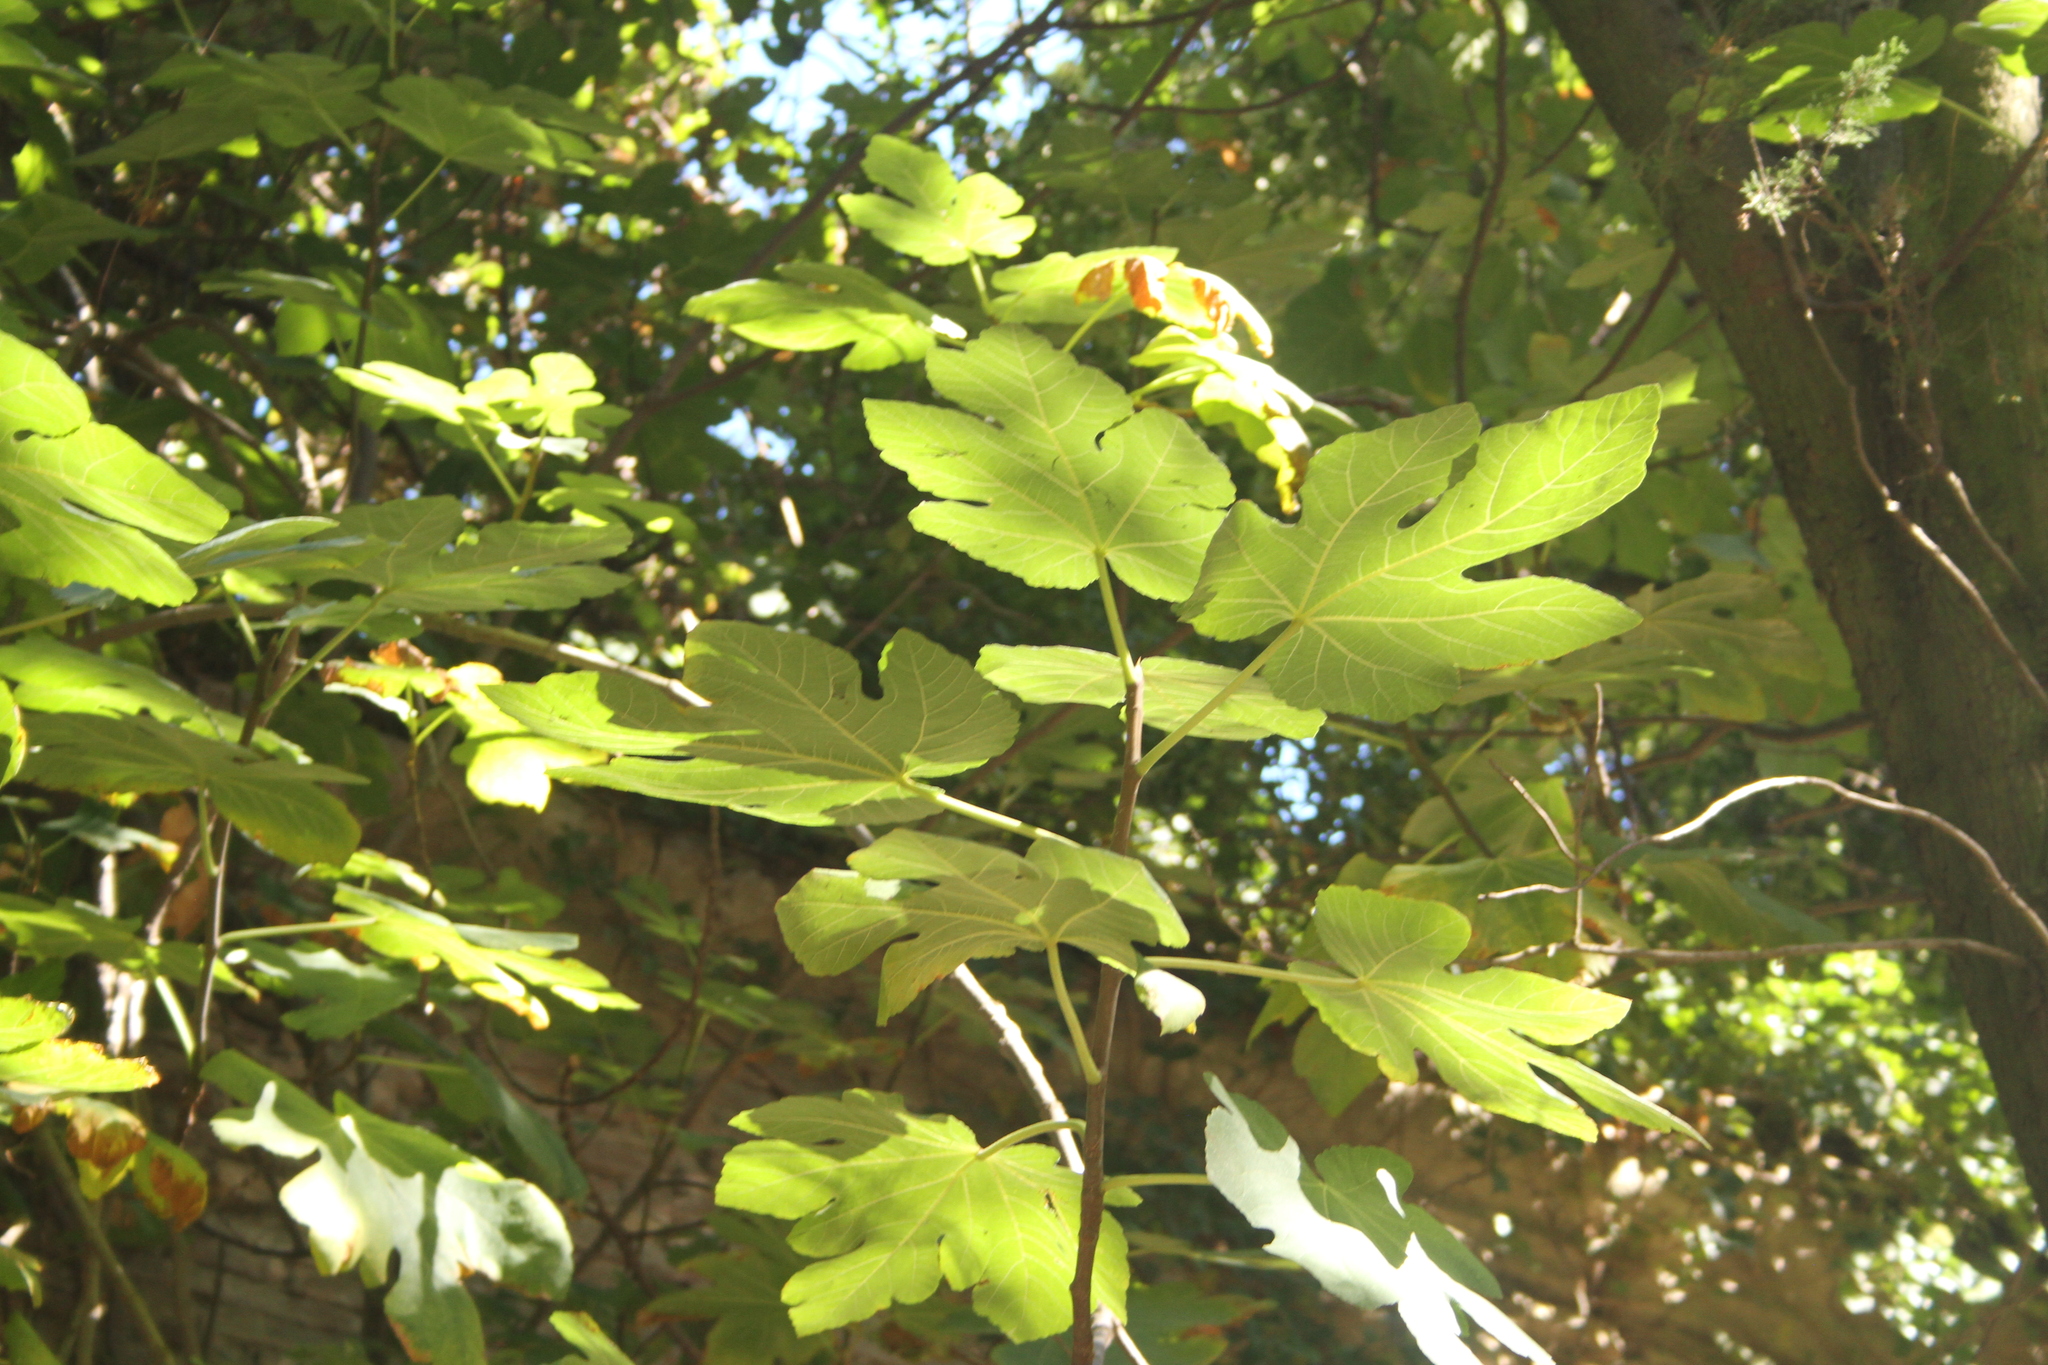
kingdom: Plantae
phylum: Tracheophyta
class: Magnoliopsida
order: Rosales
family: Moraceae
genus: Ficus
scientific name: Ficus carica
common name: Fig
